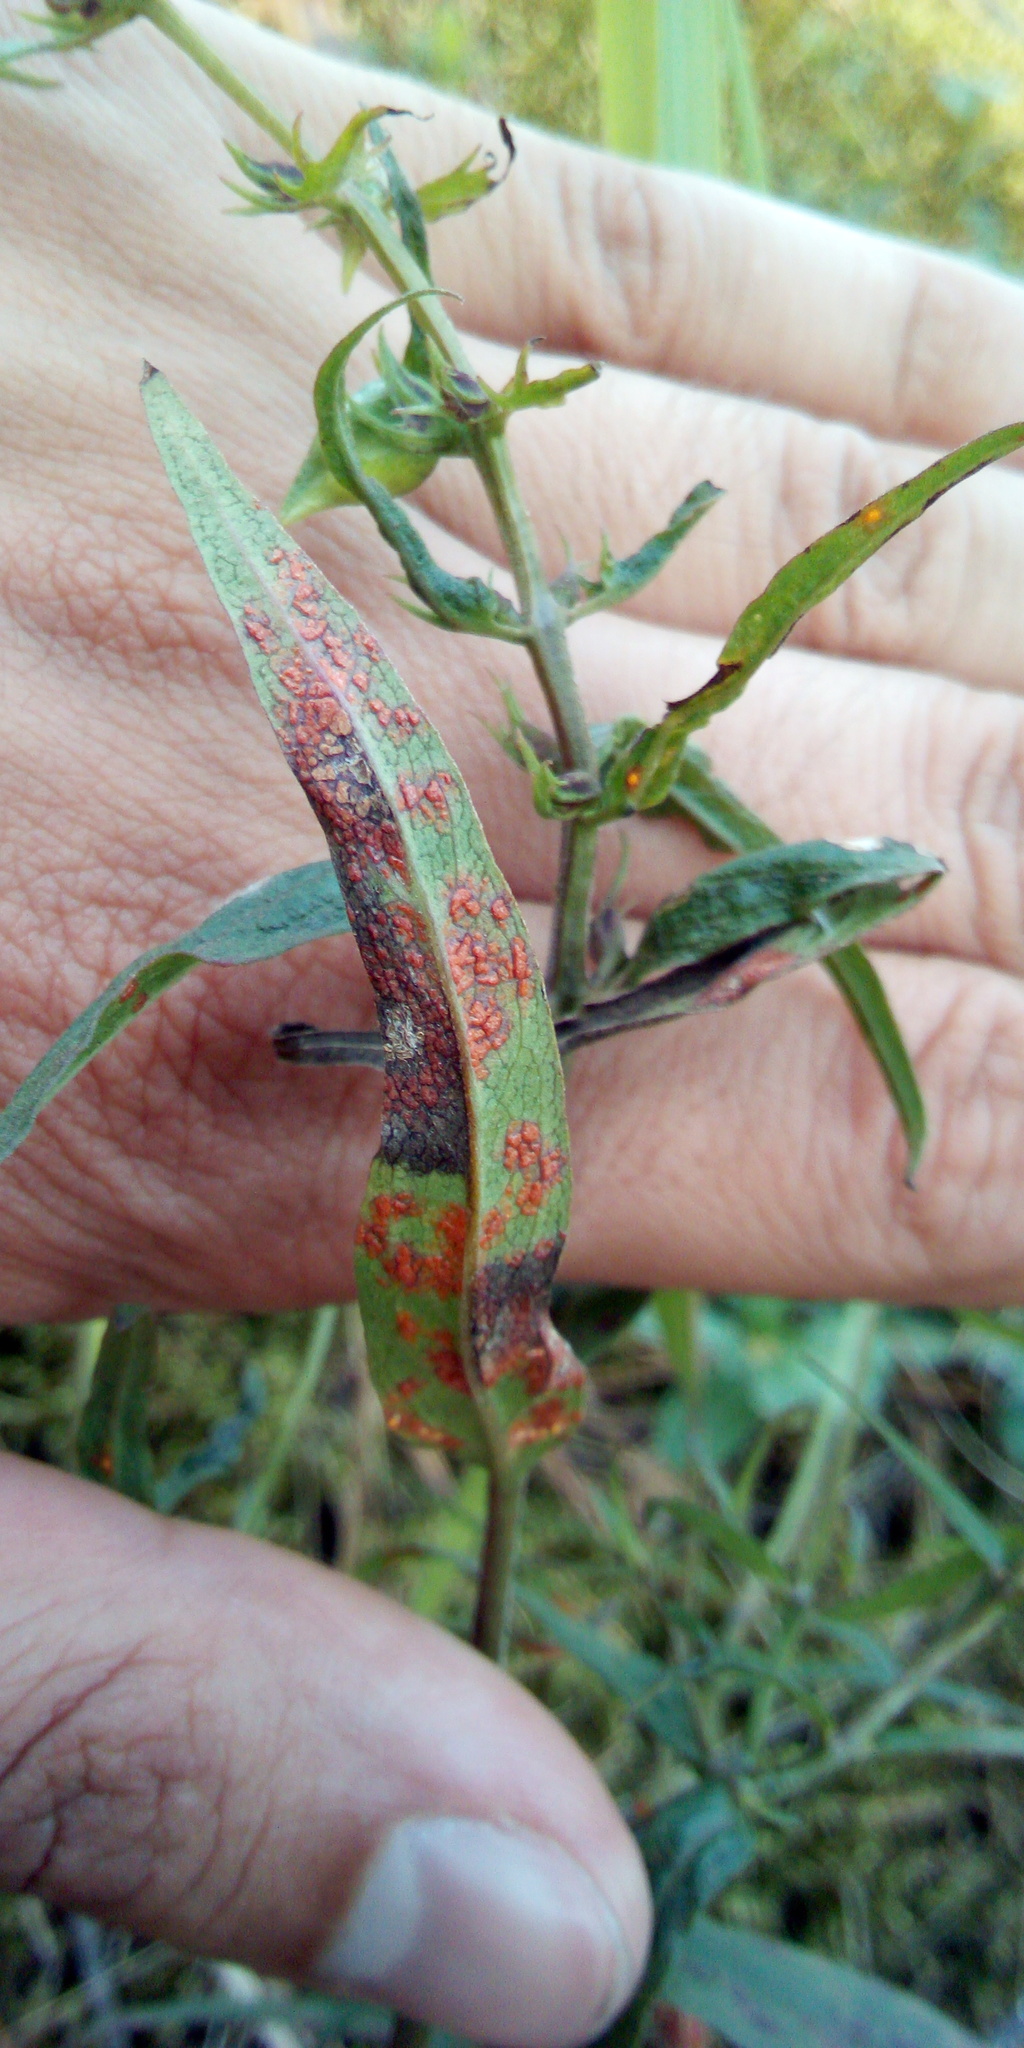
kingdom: Fungi
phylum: Basidiomycota
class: Pucciniomycetes
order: Pucciniales
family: Coleosporiaceae
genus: Coleosporium
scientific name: Coleosporium melampyri
